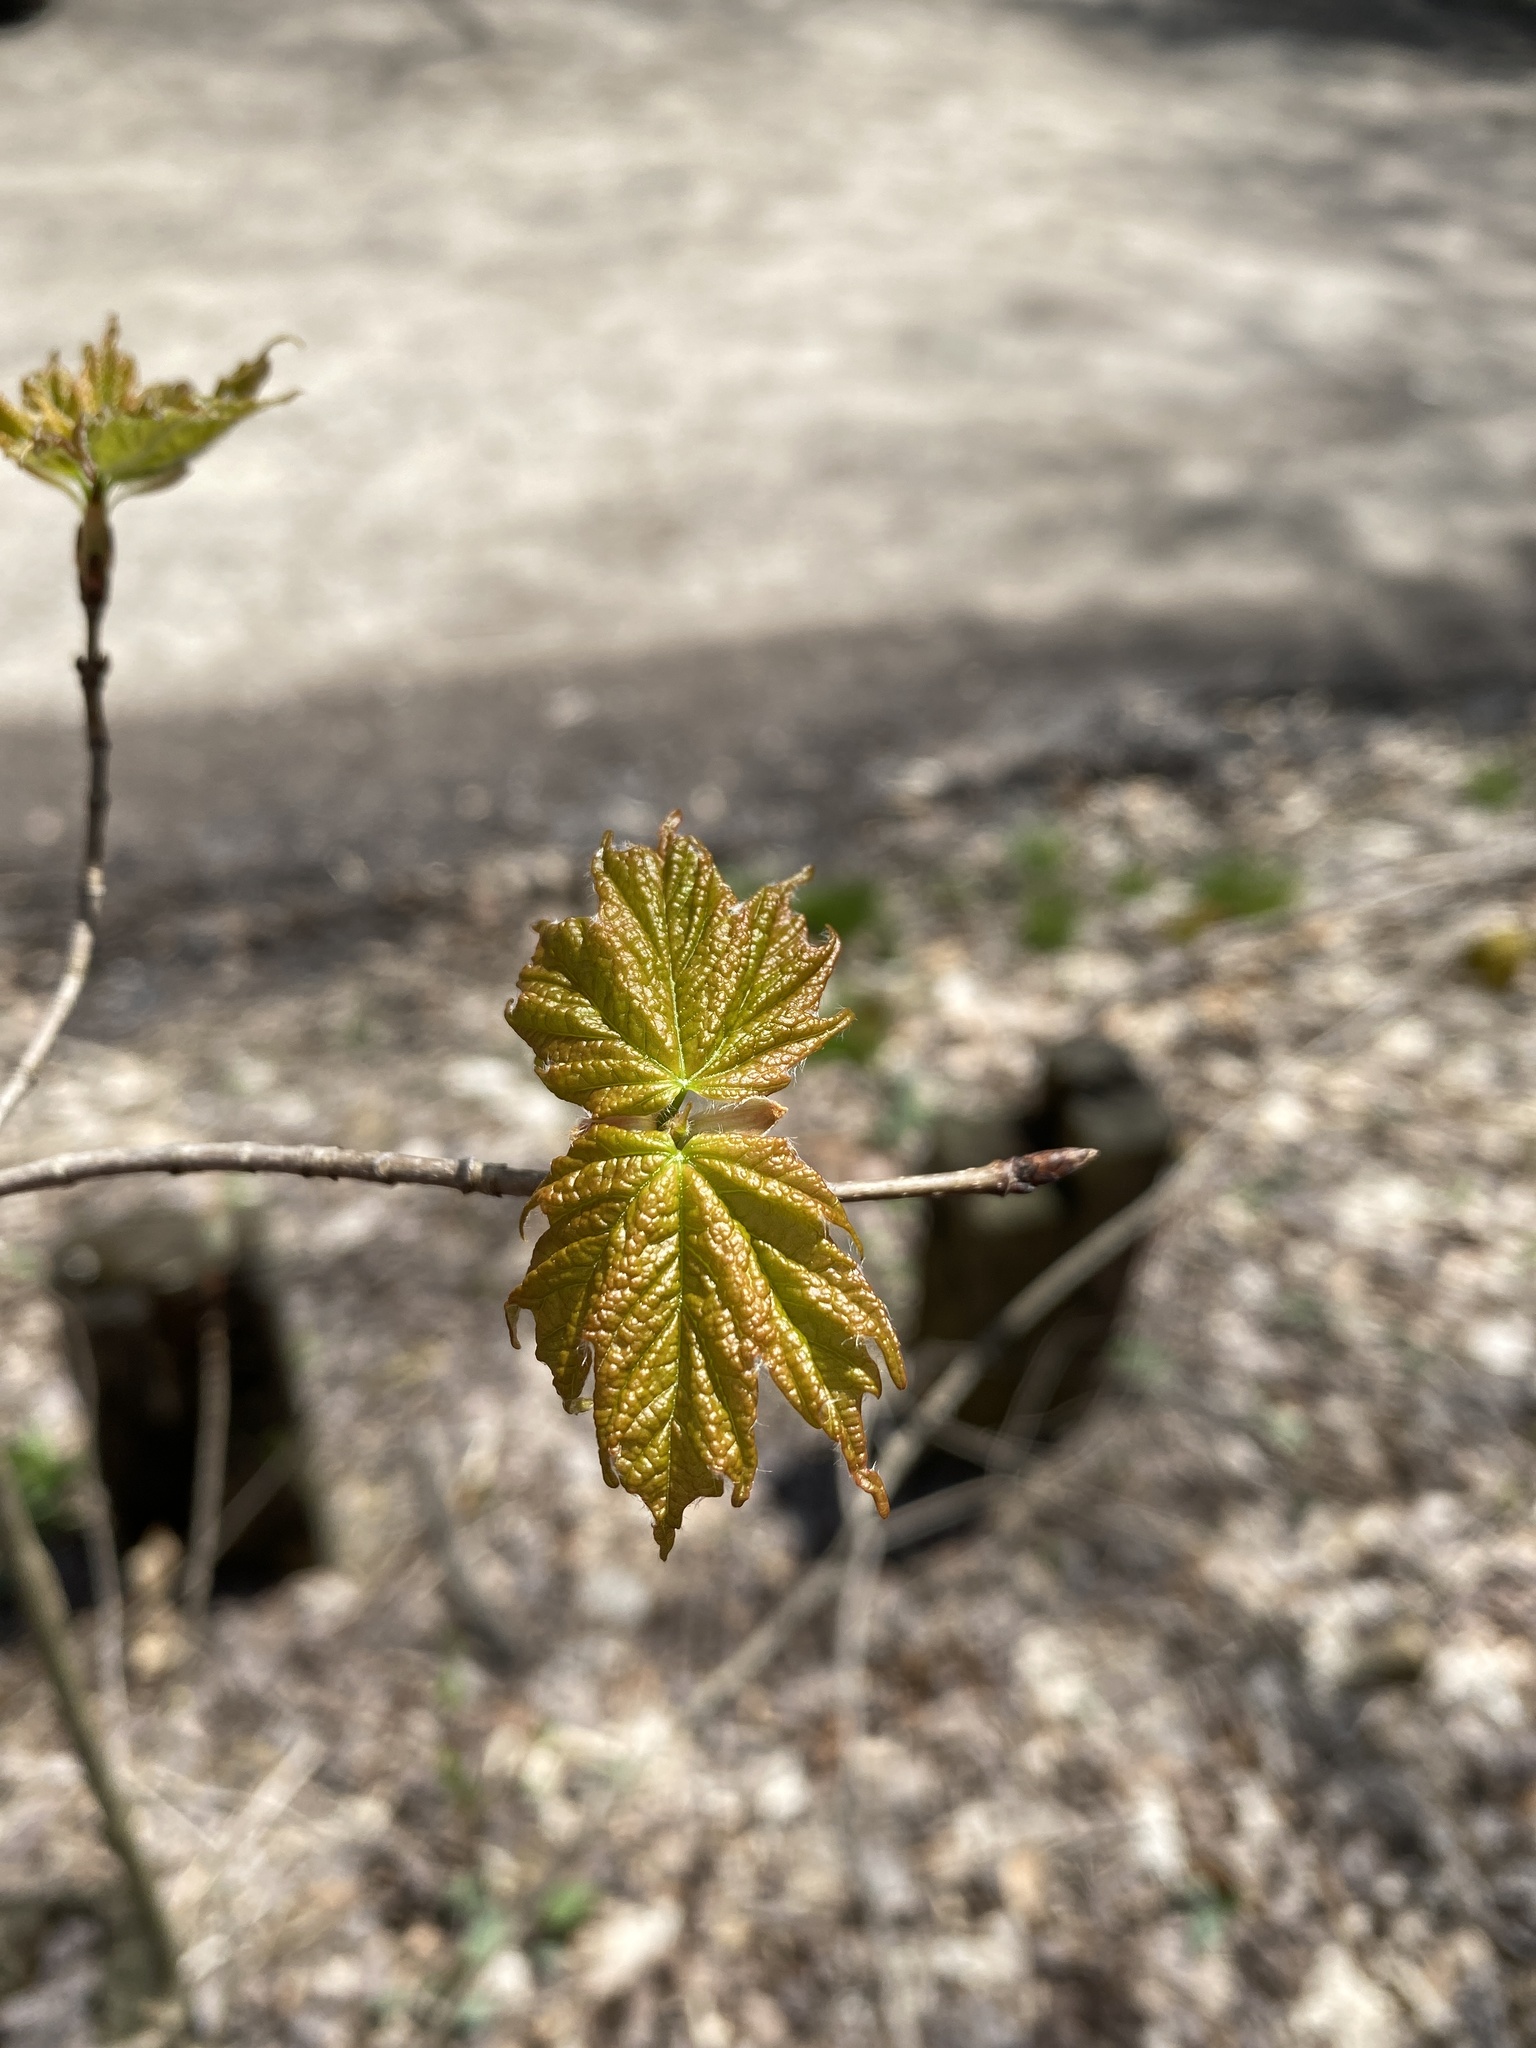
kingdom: Plantae
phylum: Tracheophyta
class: Magnoliopsida
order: Sapindales
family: Sapindaceae
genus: Acer
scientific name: Acer saccharum
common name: Sugar maple
